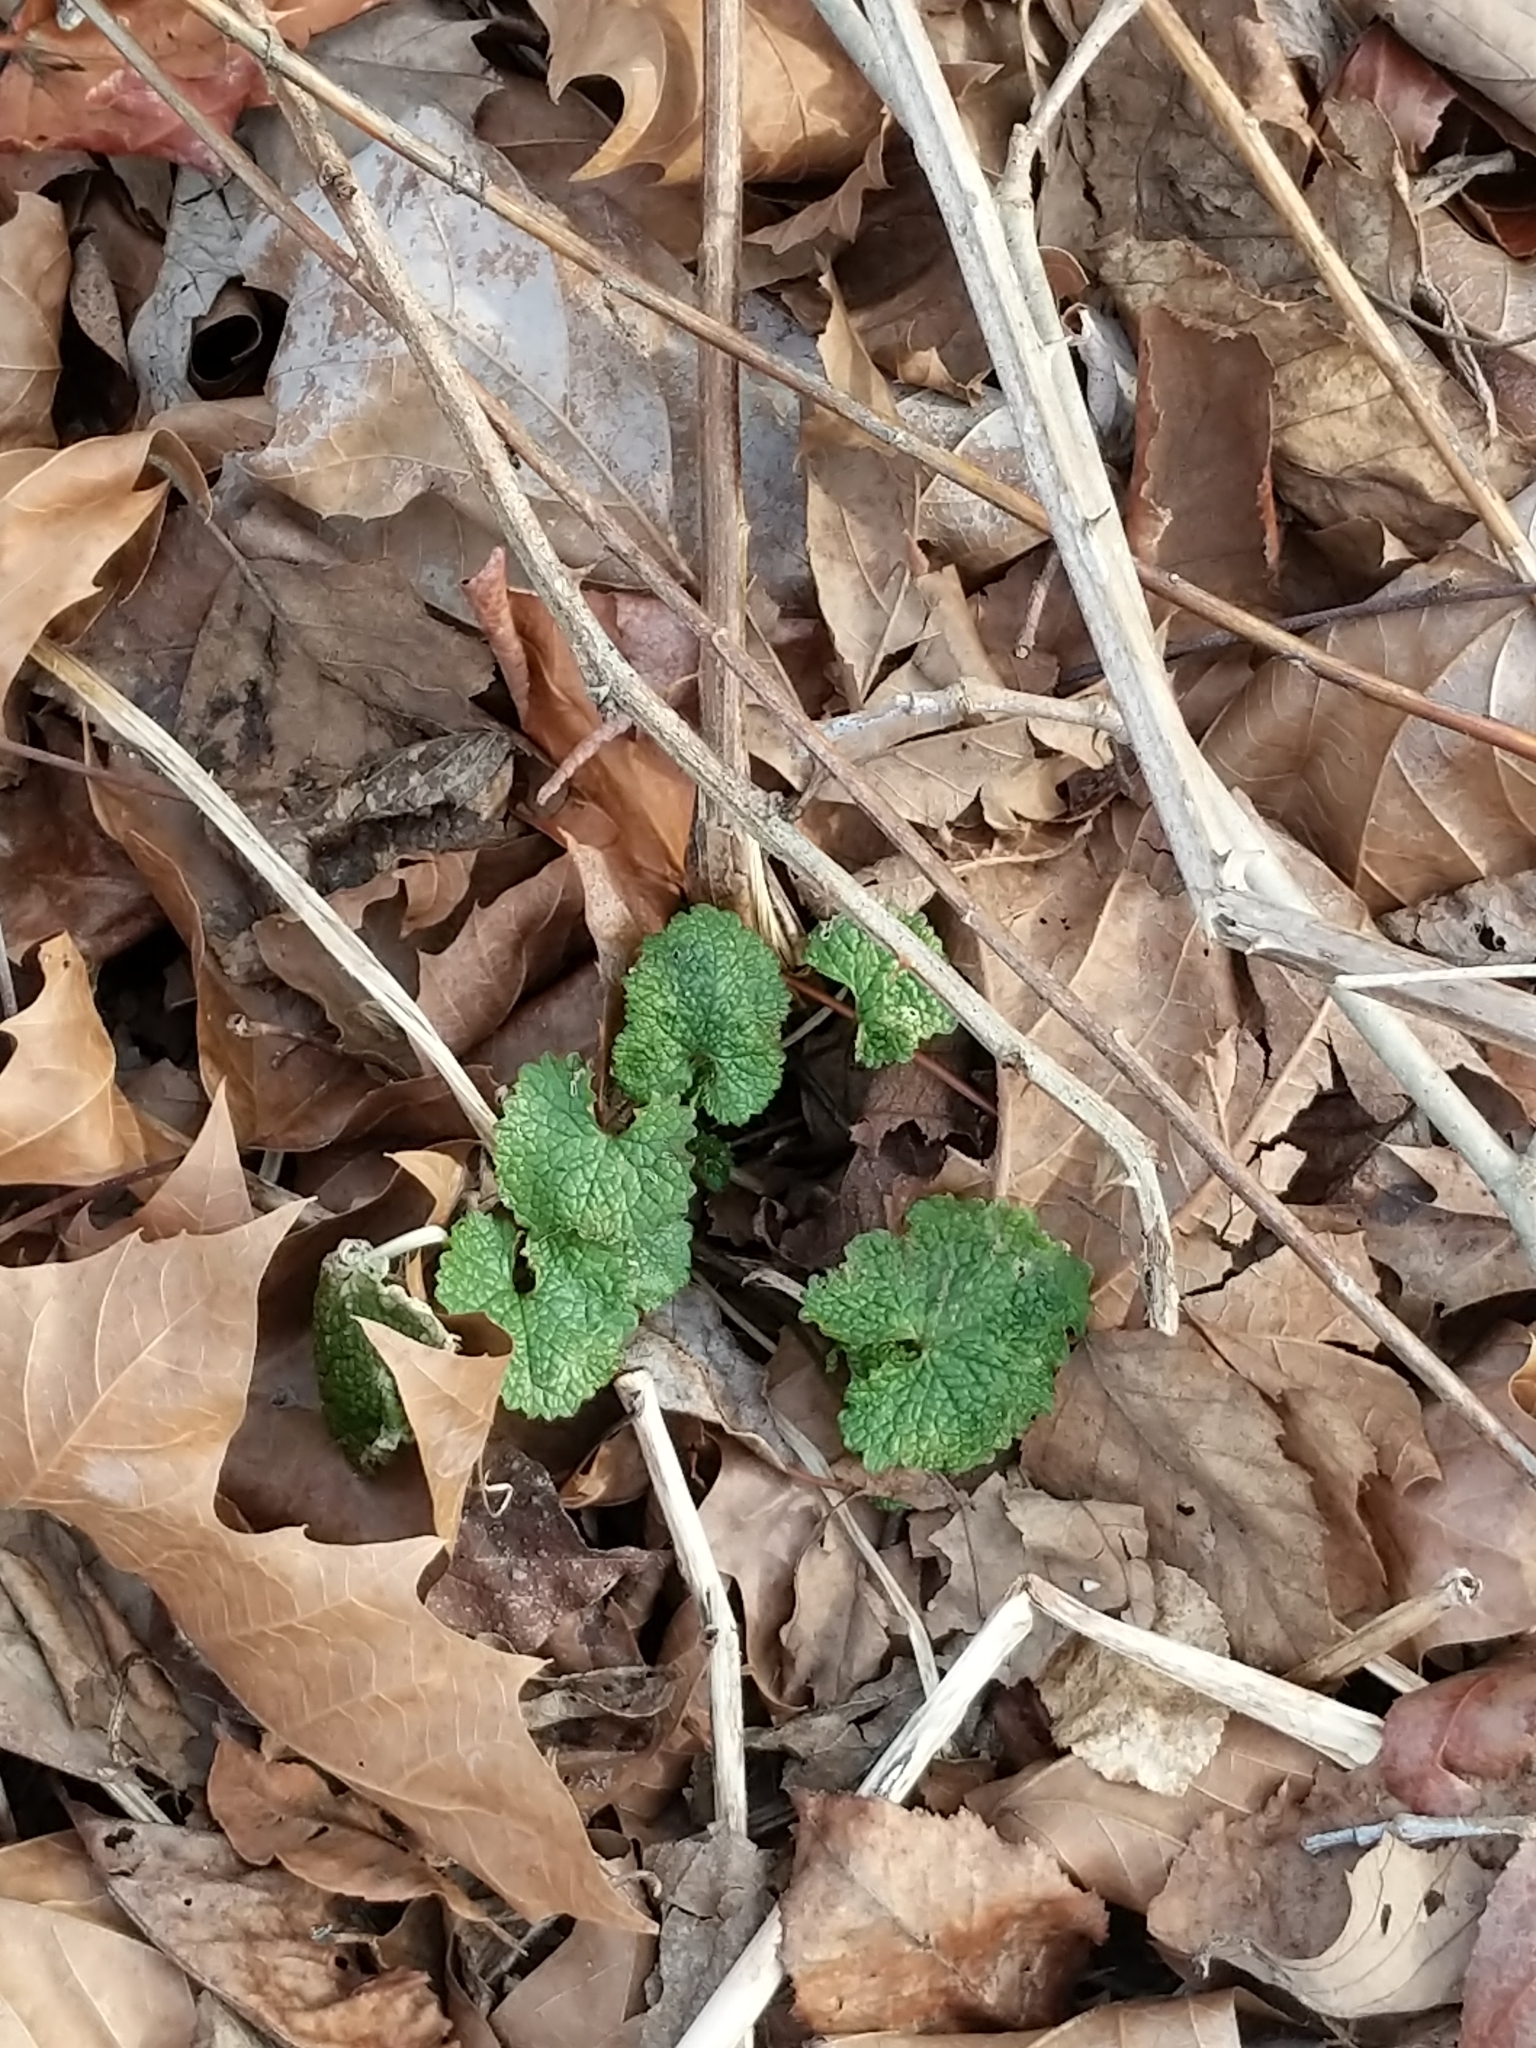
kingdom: Plantae
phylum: Tracheophyta
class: Magnoliopsida
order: Brassicales
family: Brassicaceae
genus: Alliaria
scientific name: Alliaria petiolata
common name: Garlic mustard
